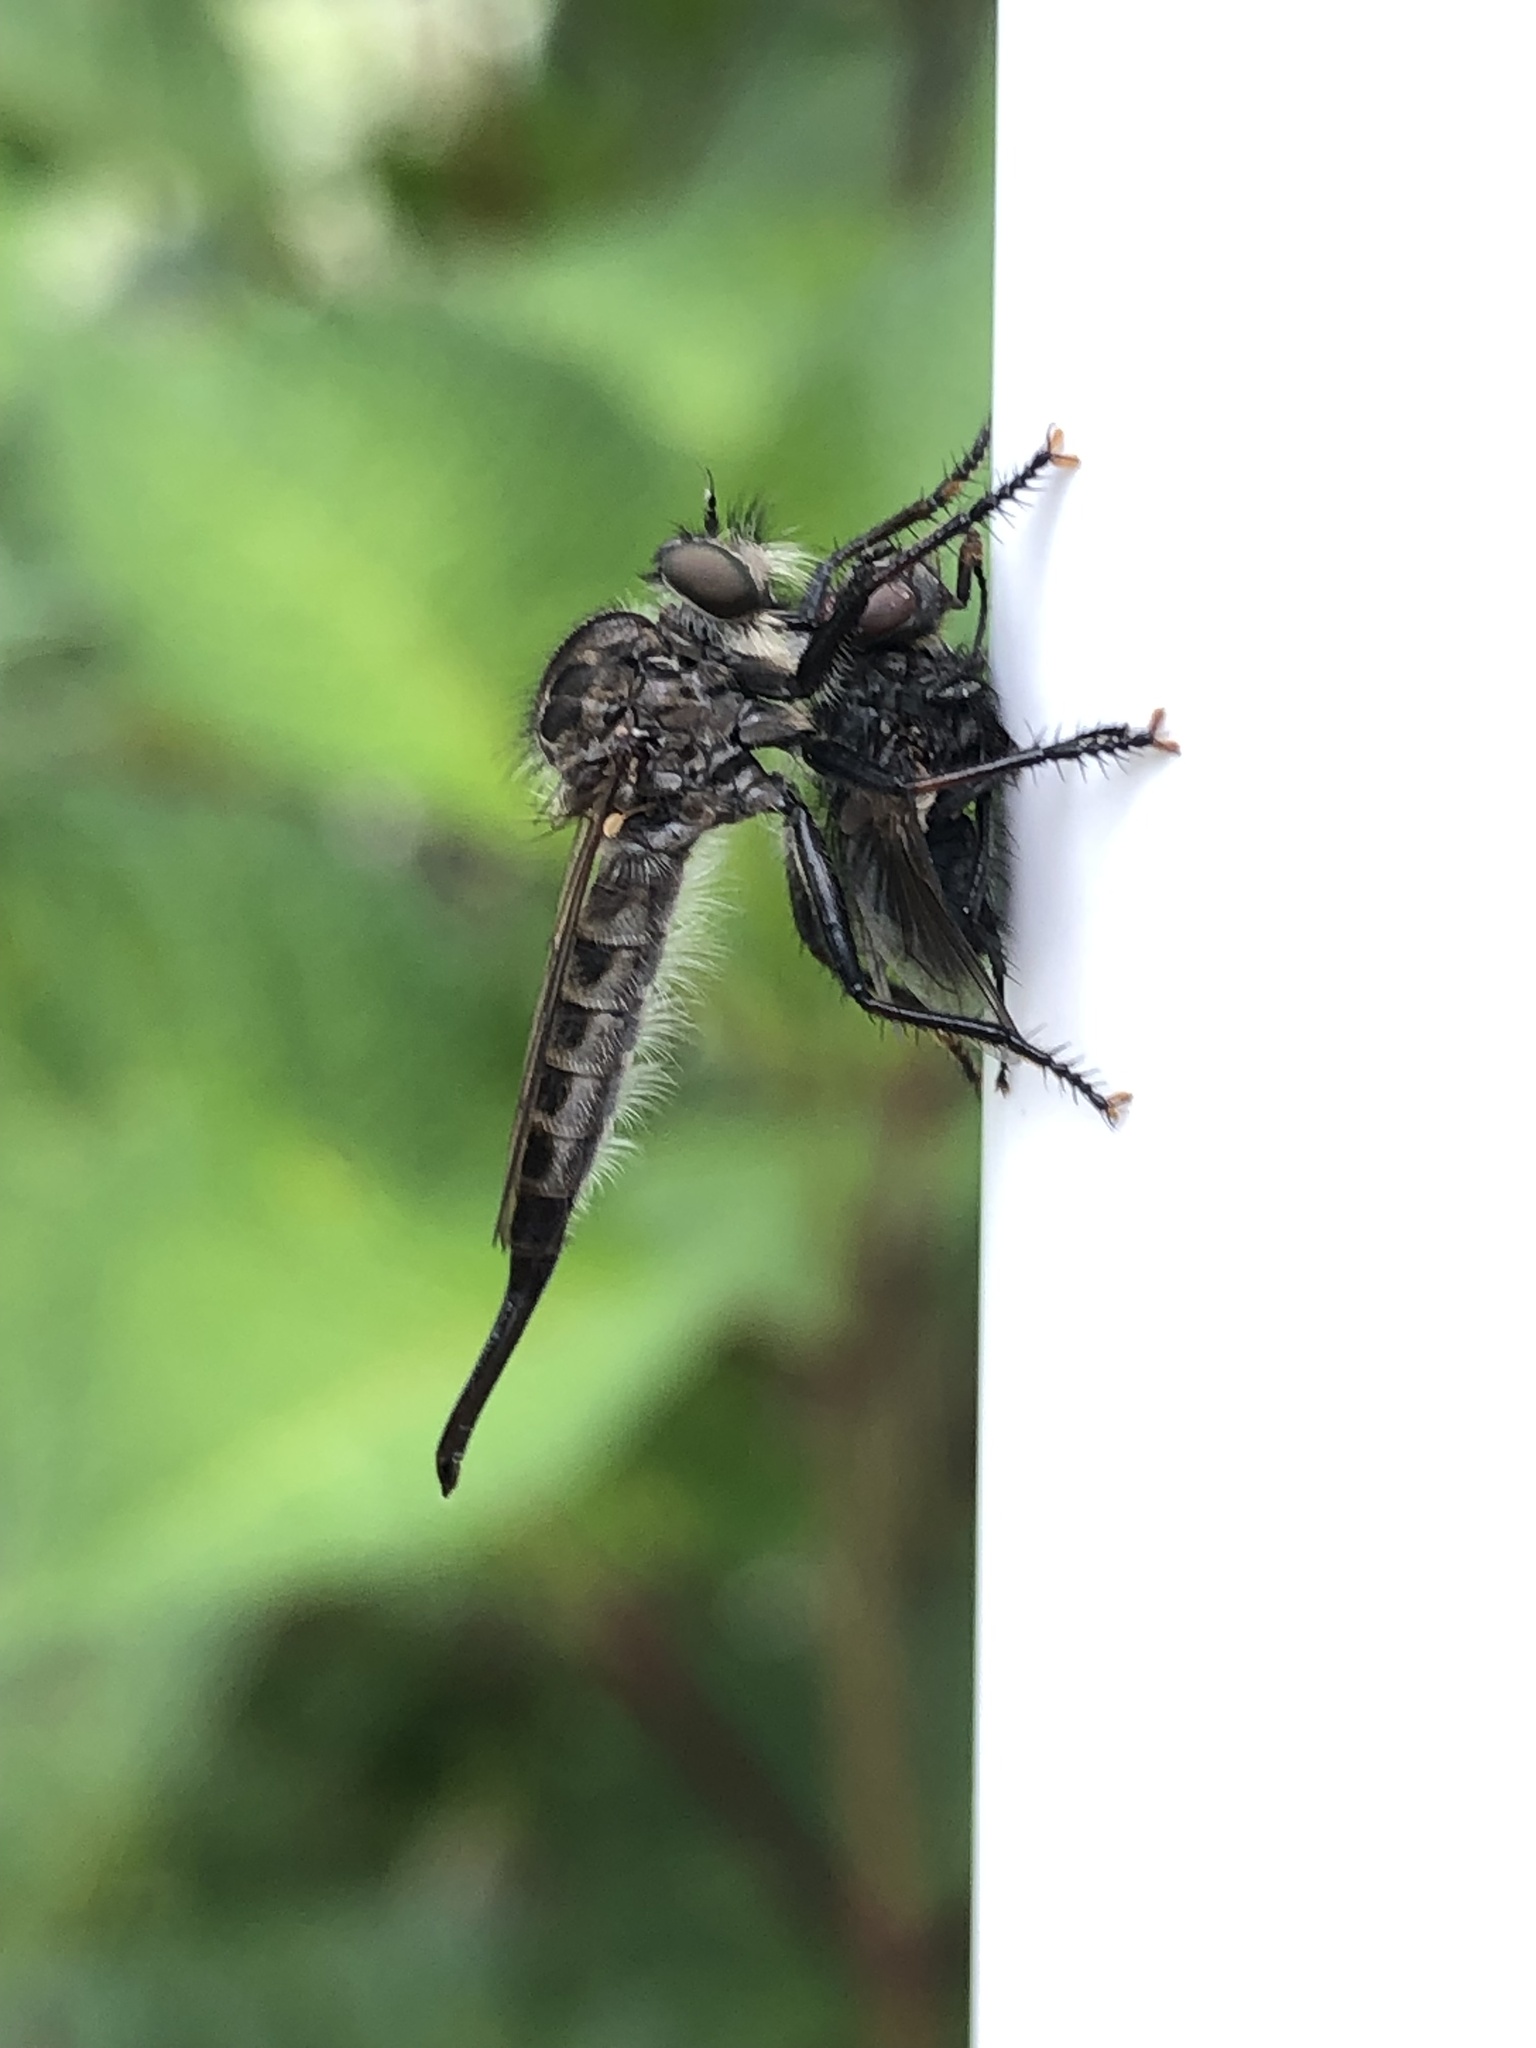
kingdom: Animalia
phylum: Arthropoda
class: Insecta
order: Diptera
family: Asilidae
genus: Efferia
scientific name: Efferia aestuans
